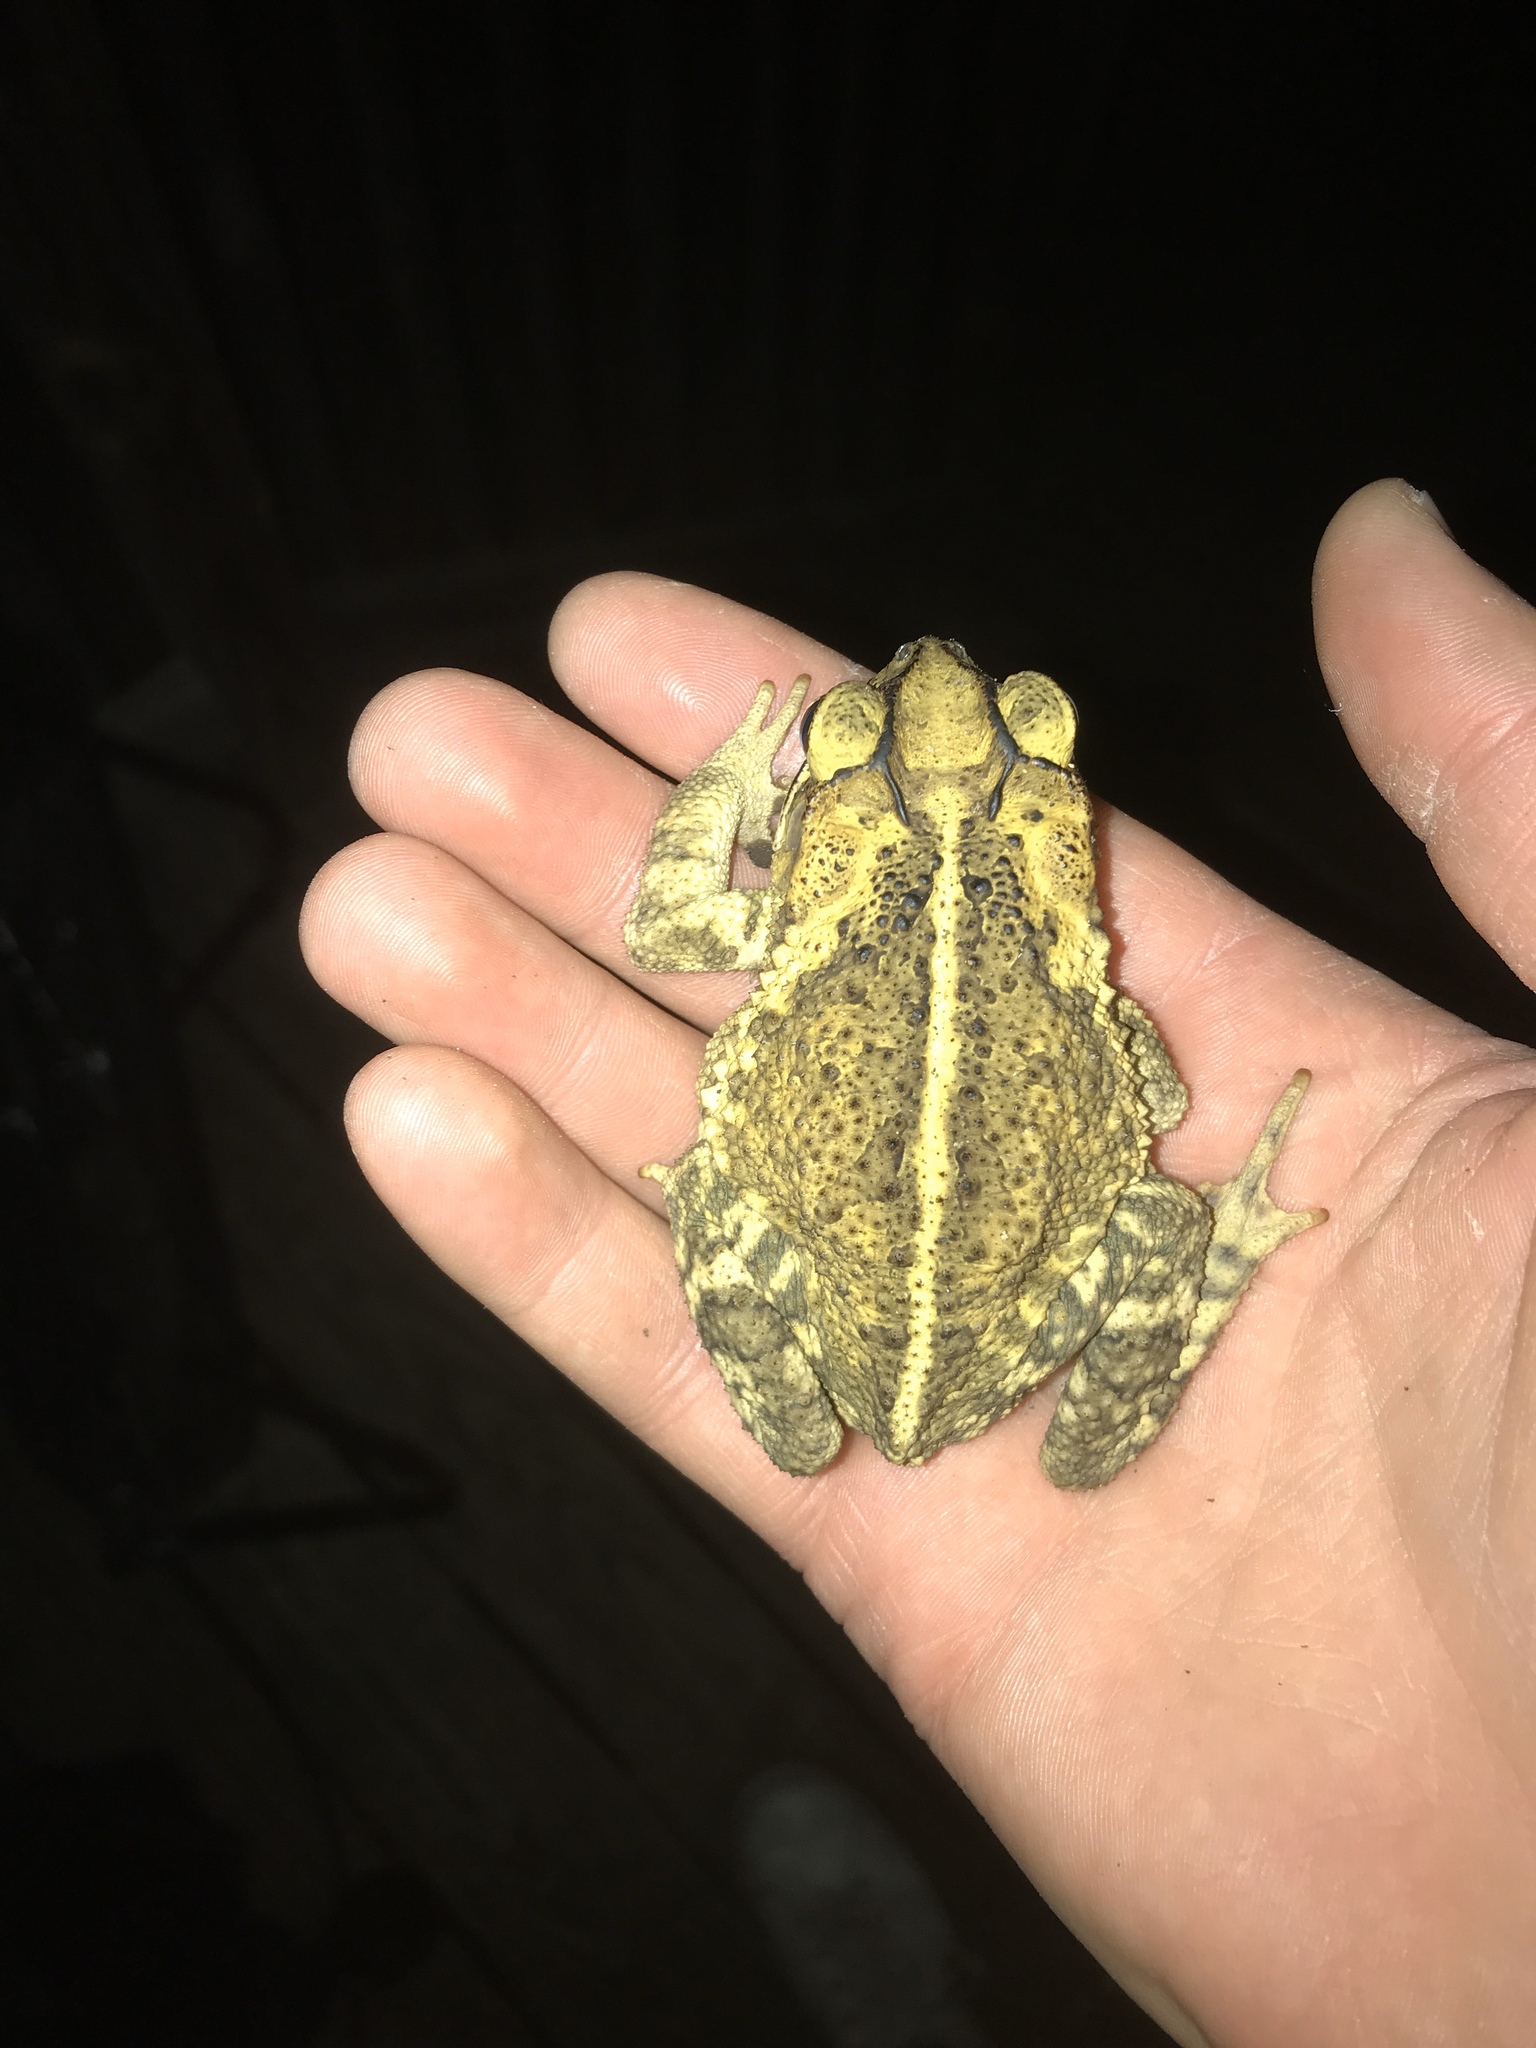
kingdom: Animalia
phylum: Chordata
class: Amphibia
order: Anura
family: Bufonidae
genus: Incilius
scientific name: Incilius nebulifer
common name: Gulf coast toad
